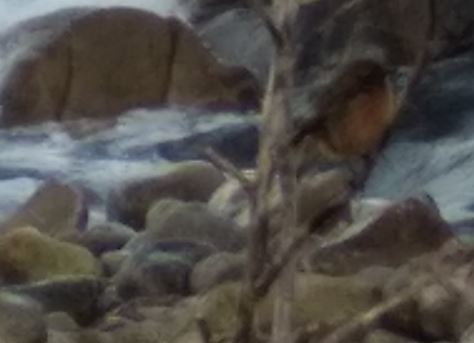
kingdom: Animalia
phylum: Chordata
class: Aves
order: Passeriformes
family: Muscicapidae
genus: Saxicola
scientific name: Saxicola rubicola
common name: European stonechat
